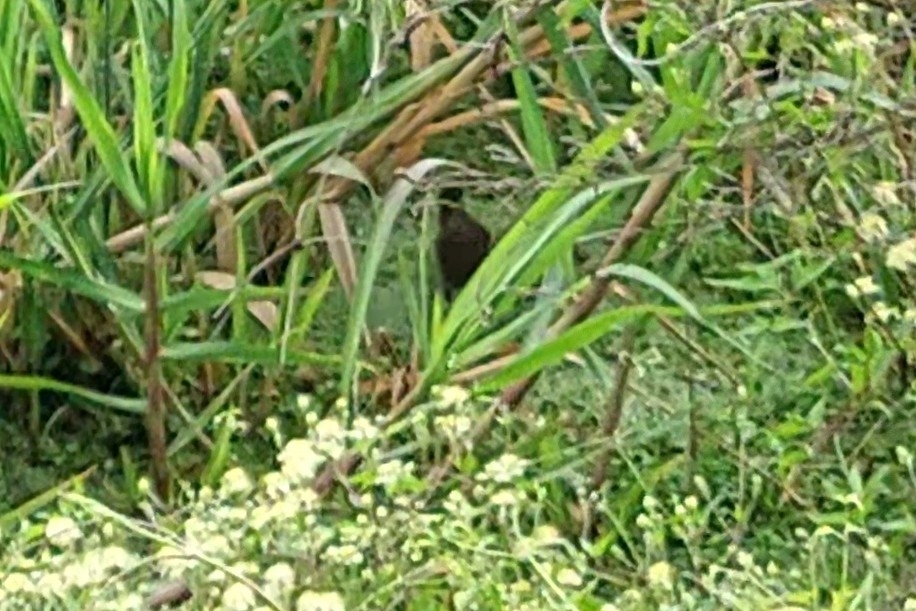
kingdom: Animalia
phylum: Chordata
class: Aves
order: Gruiformes
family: Rallidae
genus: Laterallus
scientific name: Laterallus melanophaius
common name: Rufous-sided crake
